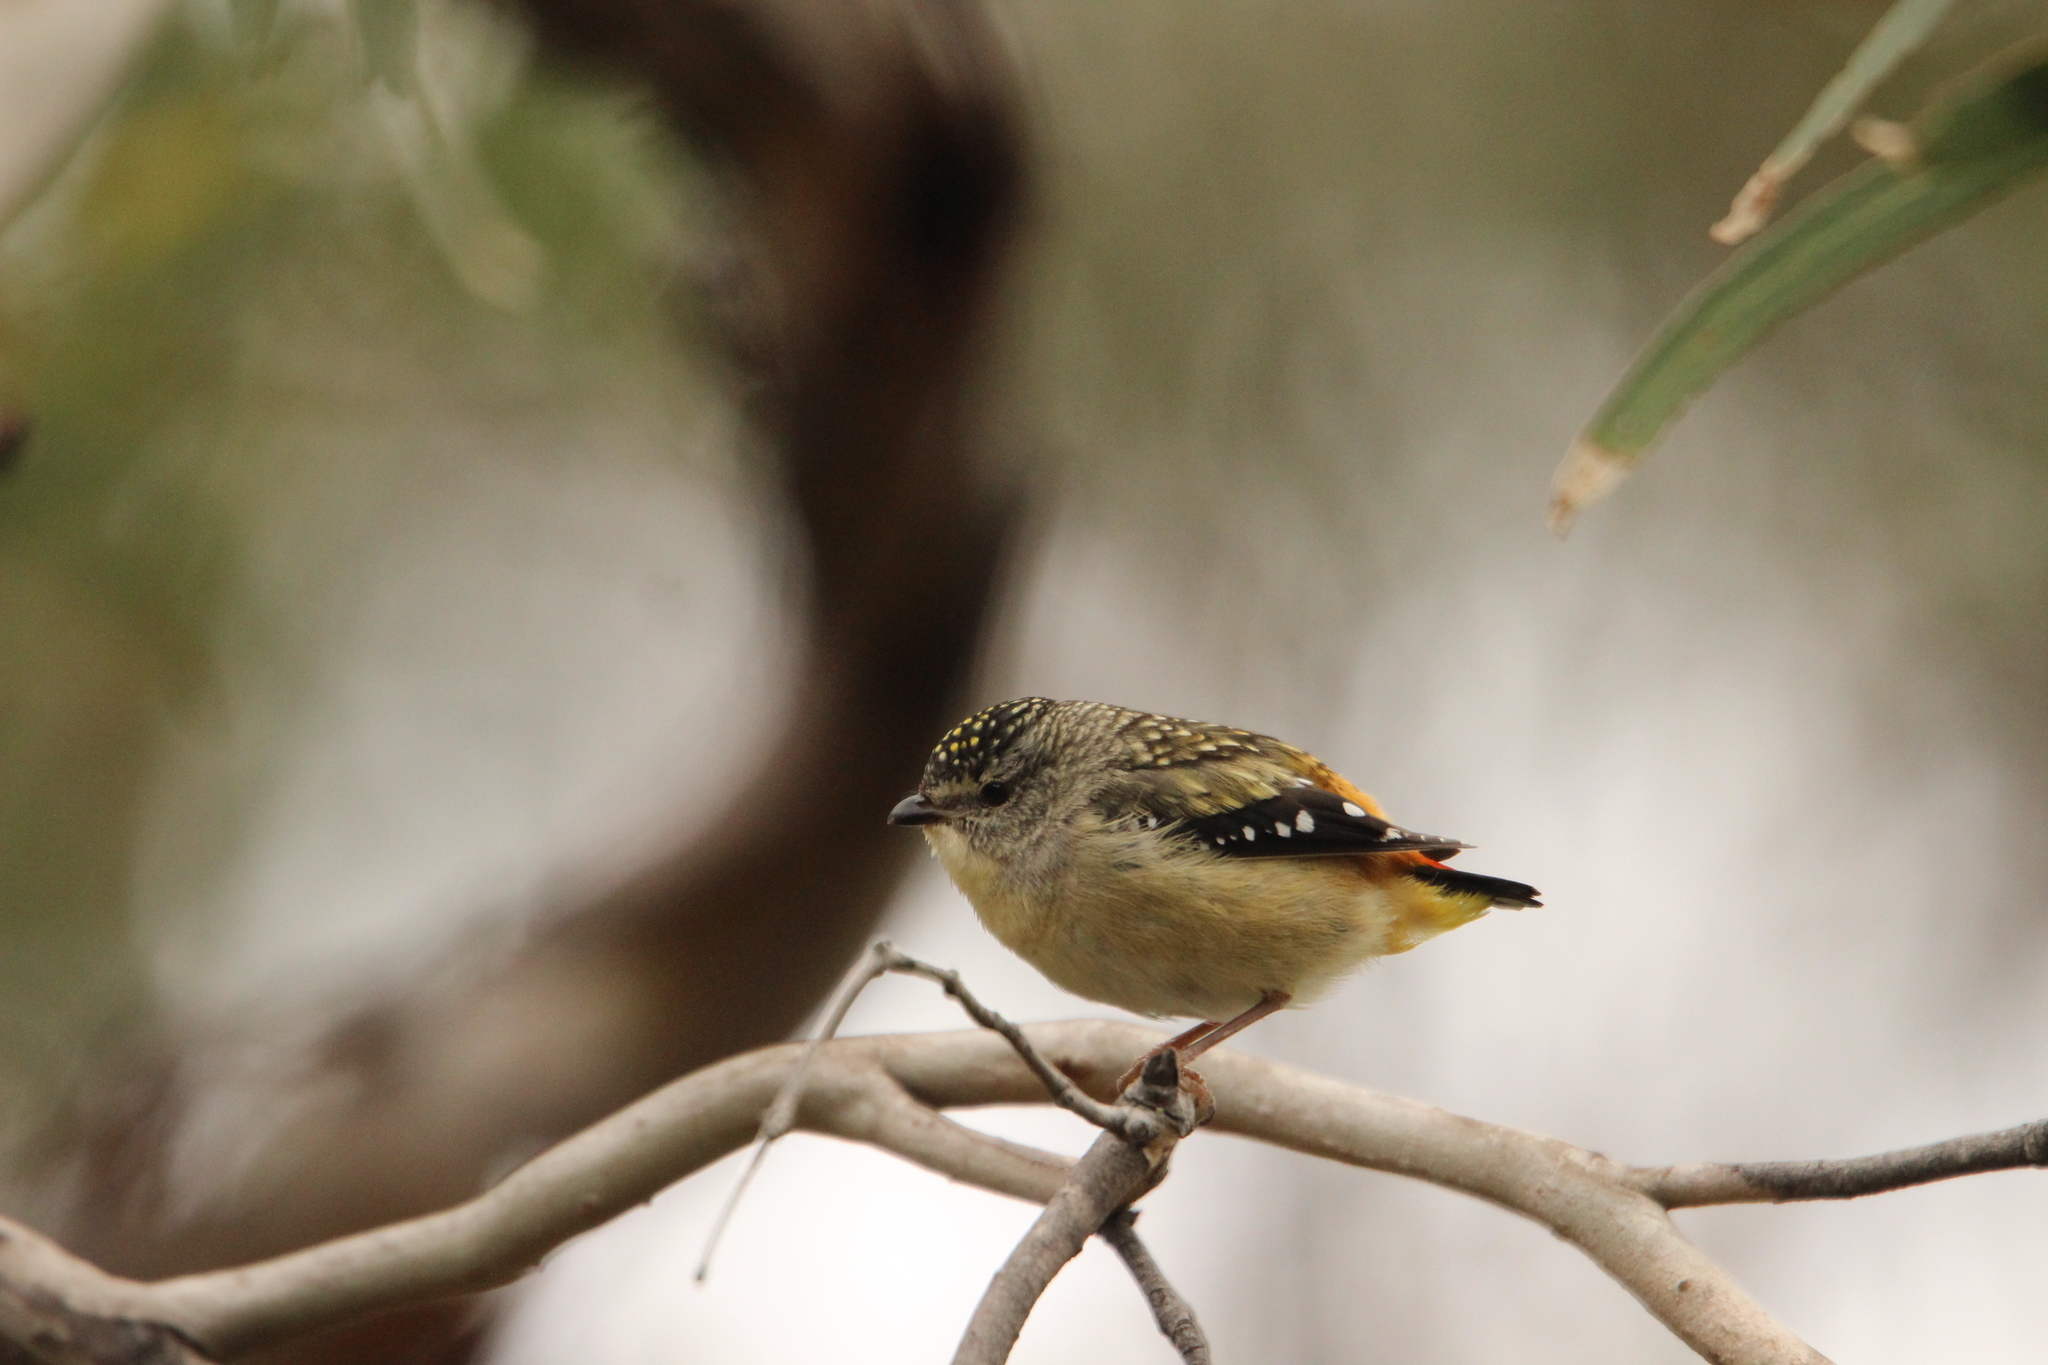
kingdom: Animalia
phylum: Chordata
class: Aves
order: Passeriformes
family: Pardalotidae
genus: Pardalotus
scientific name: Pardalotus punctatus
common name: Spotted pardalote
